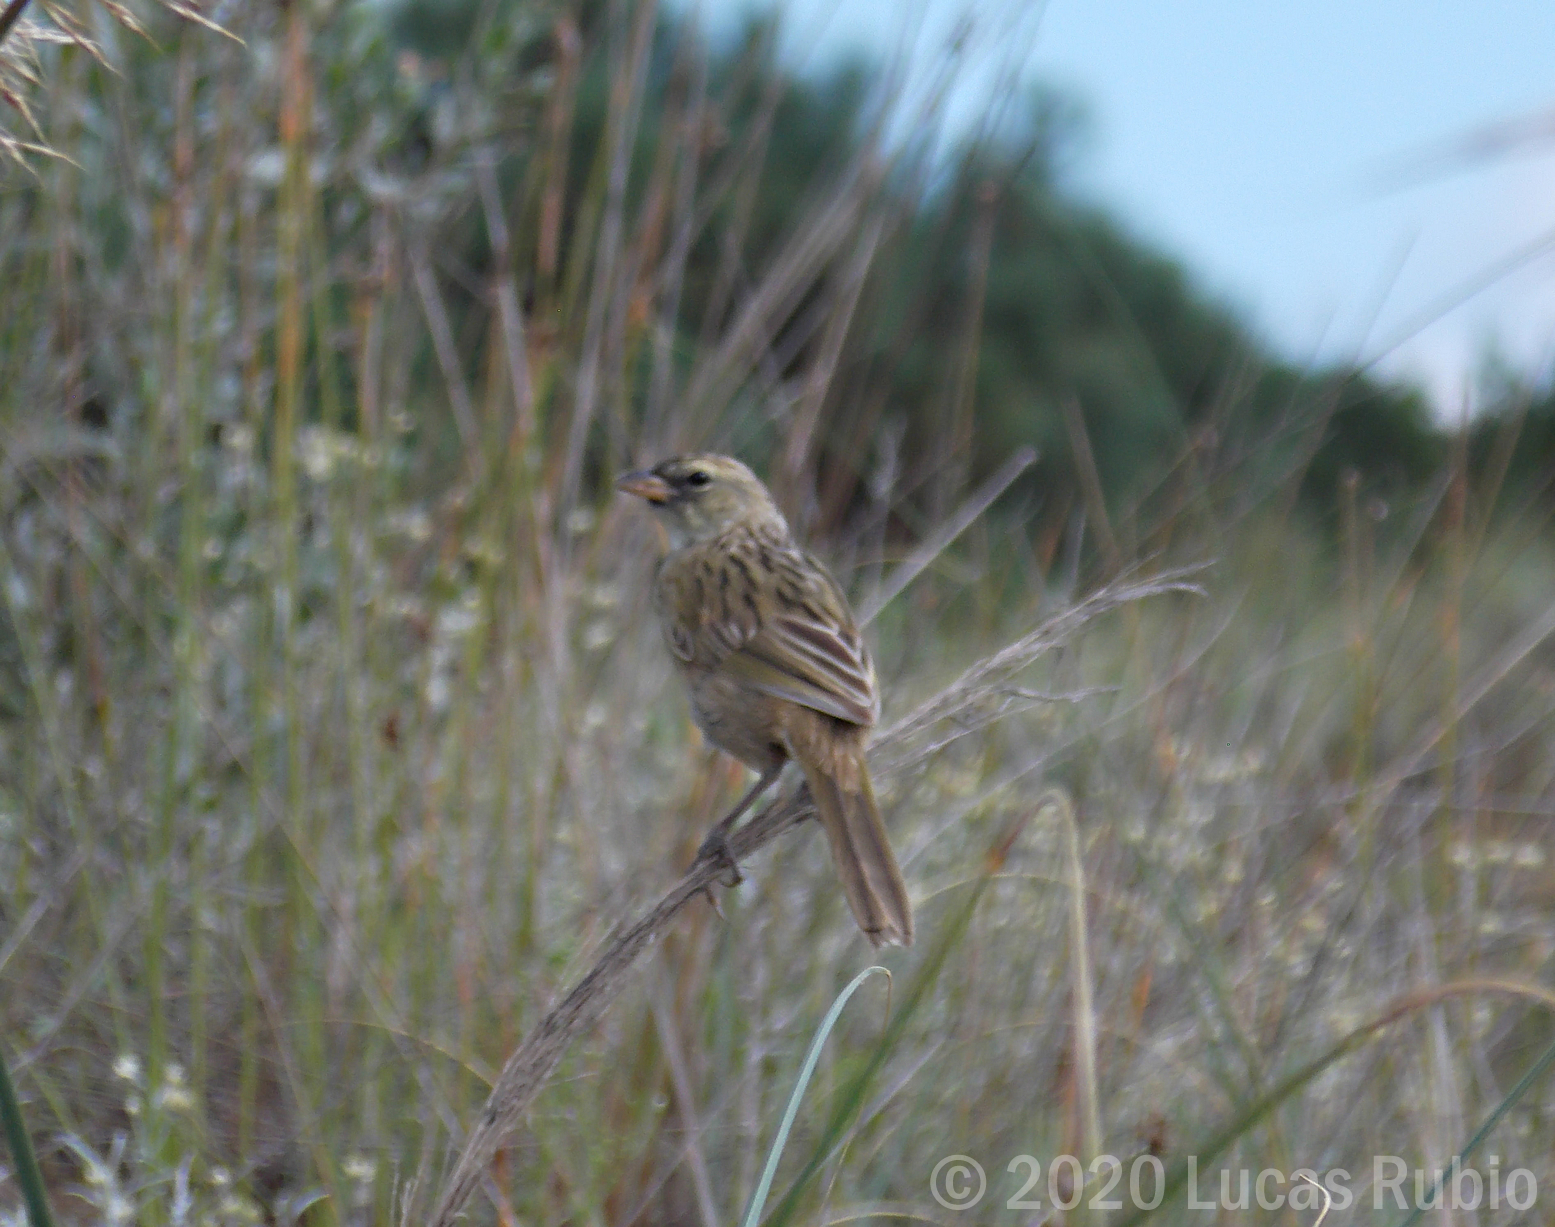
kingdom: Animalia
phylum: Chordata
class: Aves
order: Passeriformes
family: Thraupidae
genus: Embernagra
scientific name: Embernagra platensis
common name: Pampa finch
